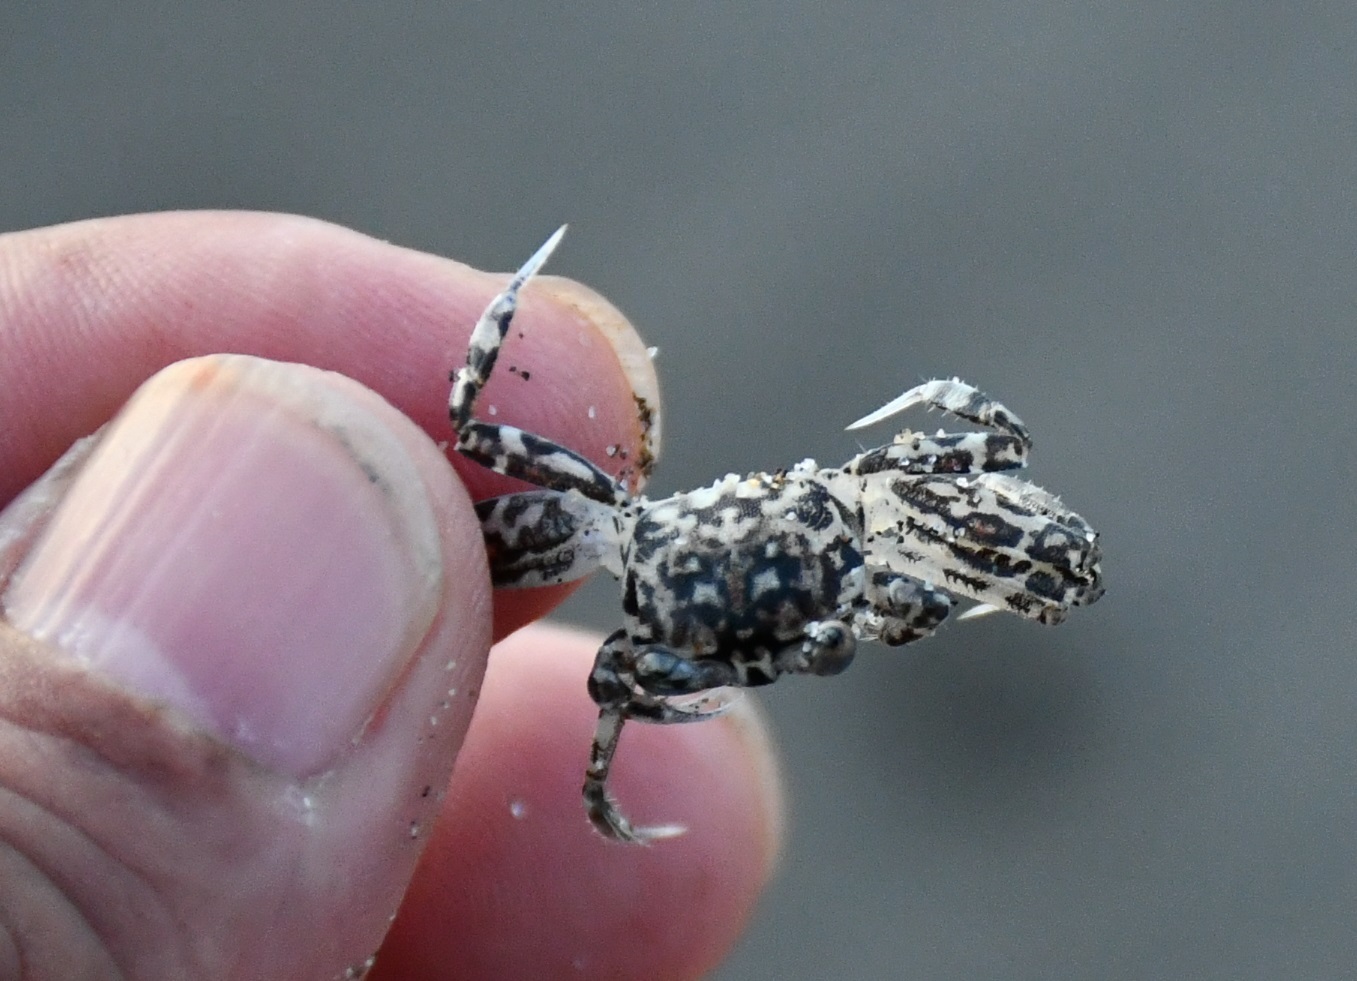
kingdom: Animalia
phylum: Arthropoda
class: Malacostraca
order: Decapoda
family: Ocypodidae
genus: Ocypode
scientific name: Ocypode occidentalis
